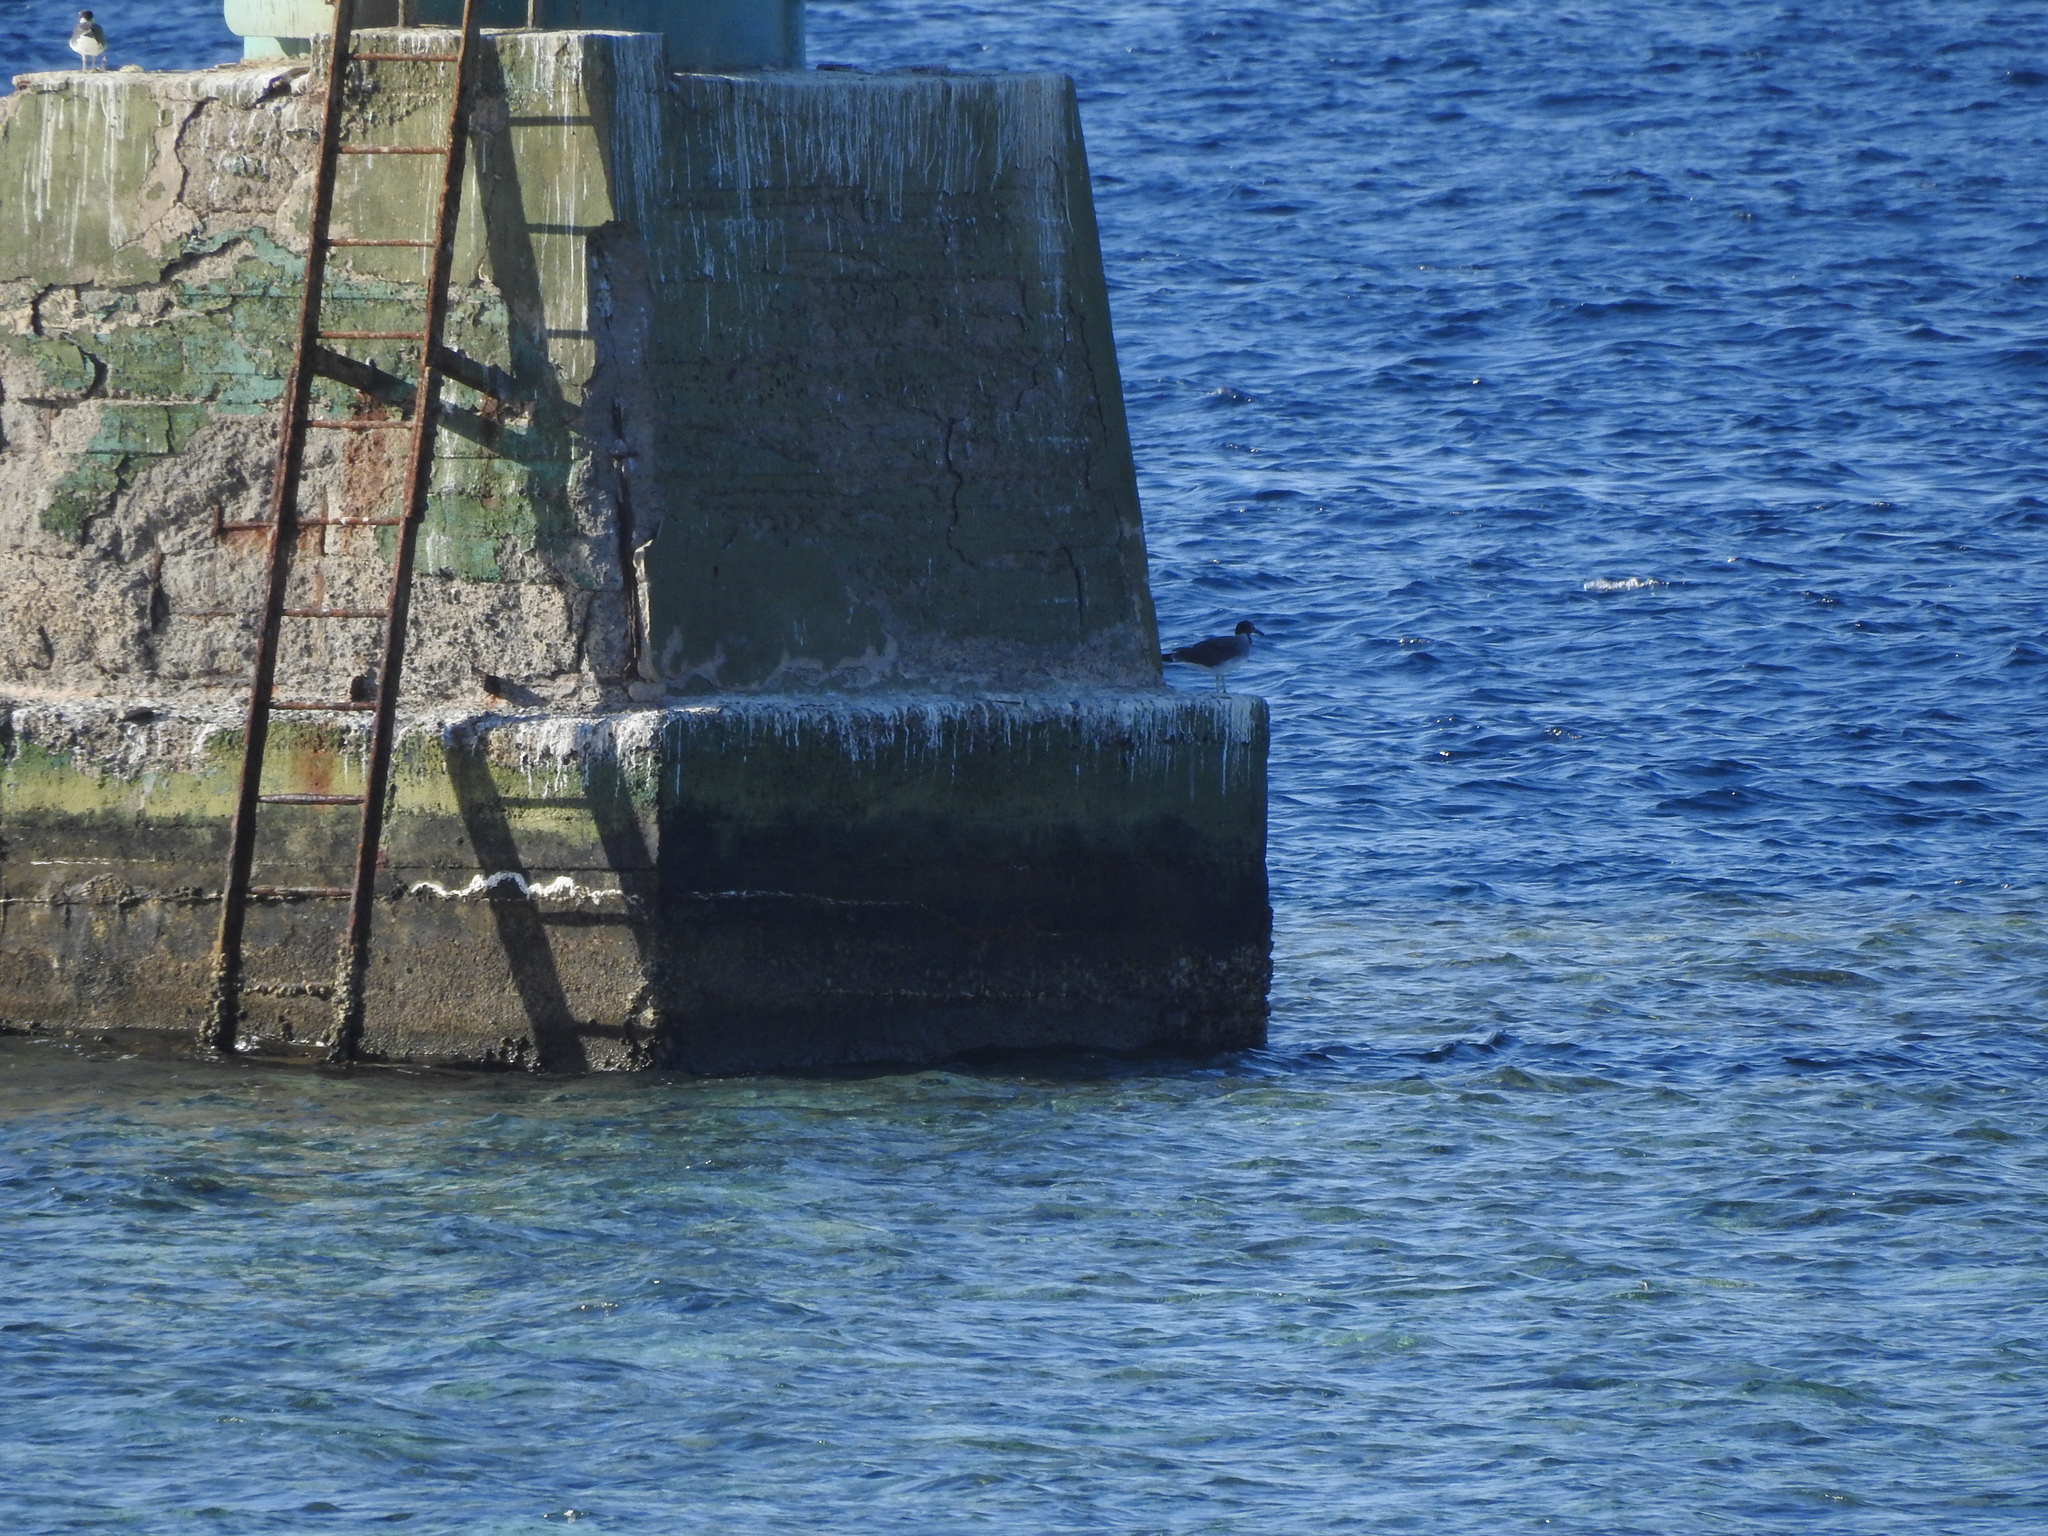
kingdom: Animalia
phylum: Chordata
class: Aves
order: Charadriiformes
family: Laridae
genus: Ichthyaetus
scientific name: Ichthyaetus leucophthalmus
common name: White-eyed gull
